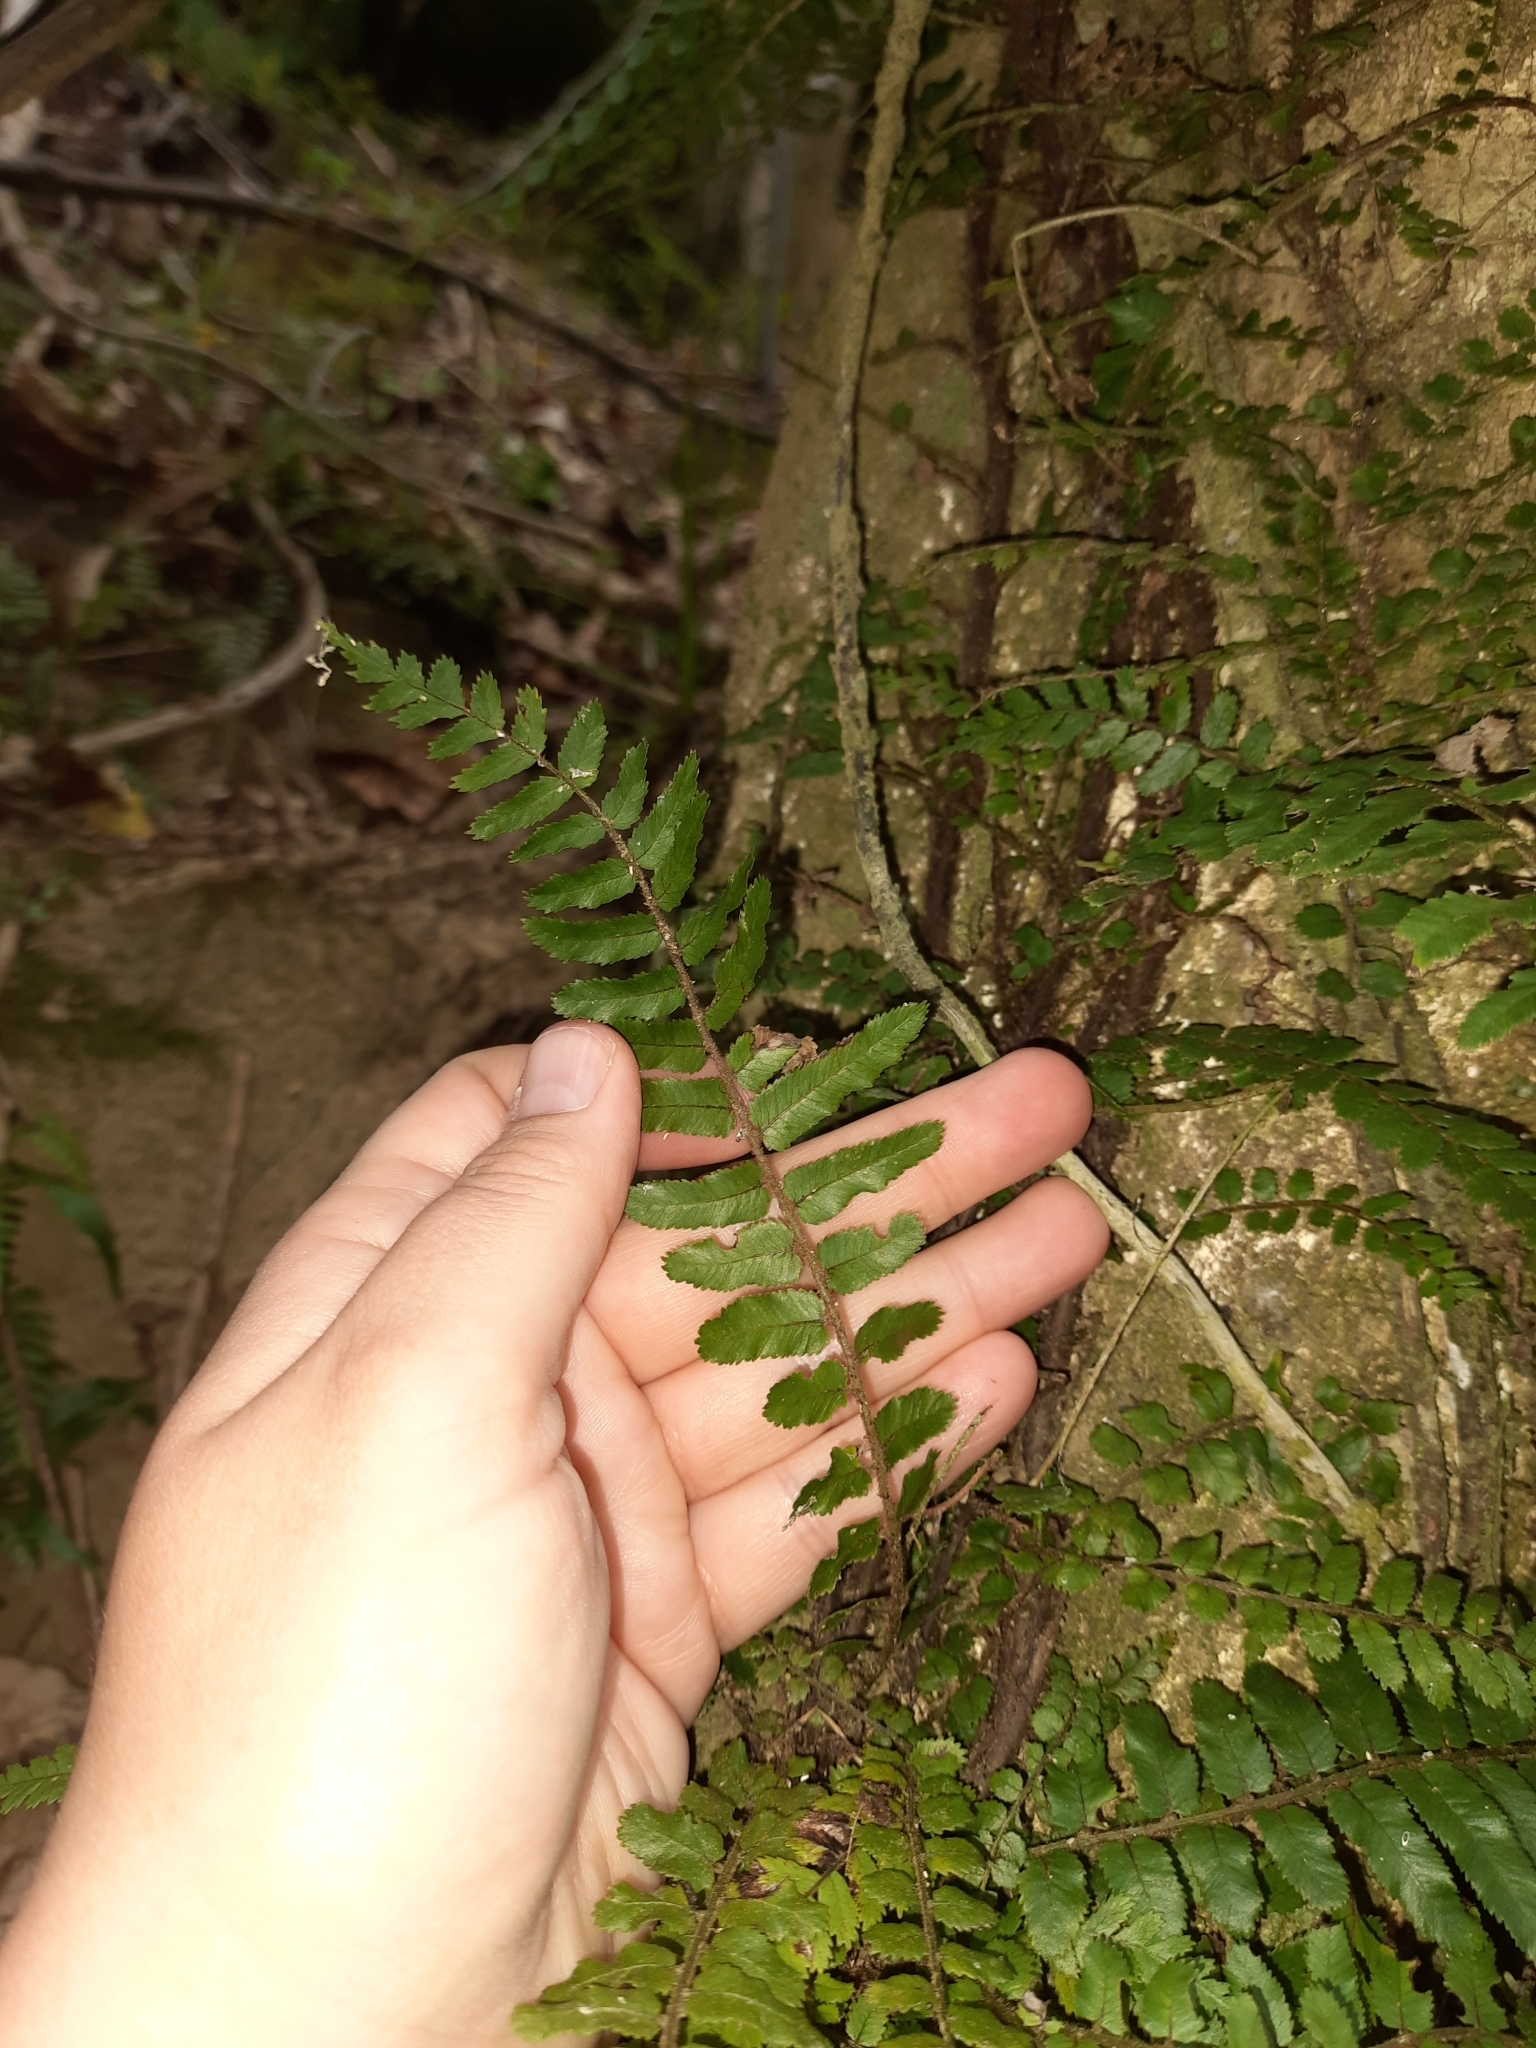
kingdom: Plantae
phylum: Tracheophyta
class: Polypodiopsida
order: Polypodiales
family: Blechnaceae
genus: Icarus
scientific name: Icarus filiformis
